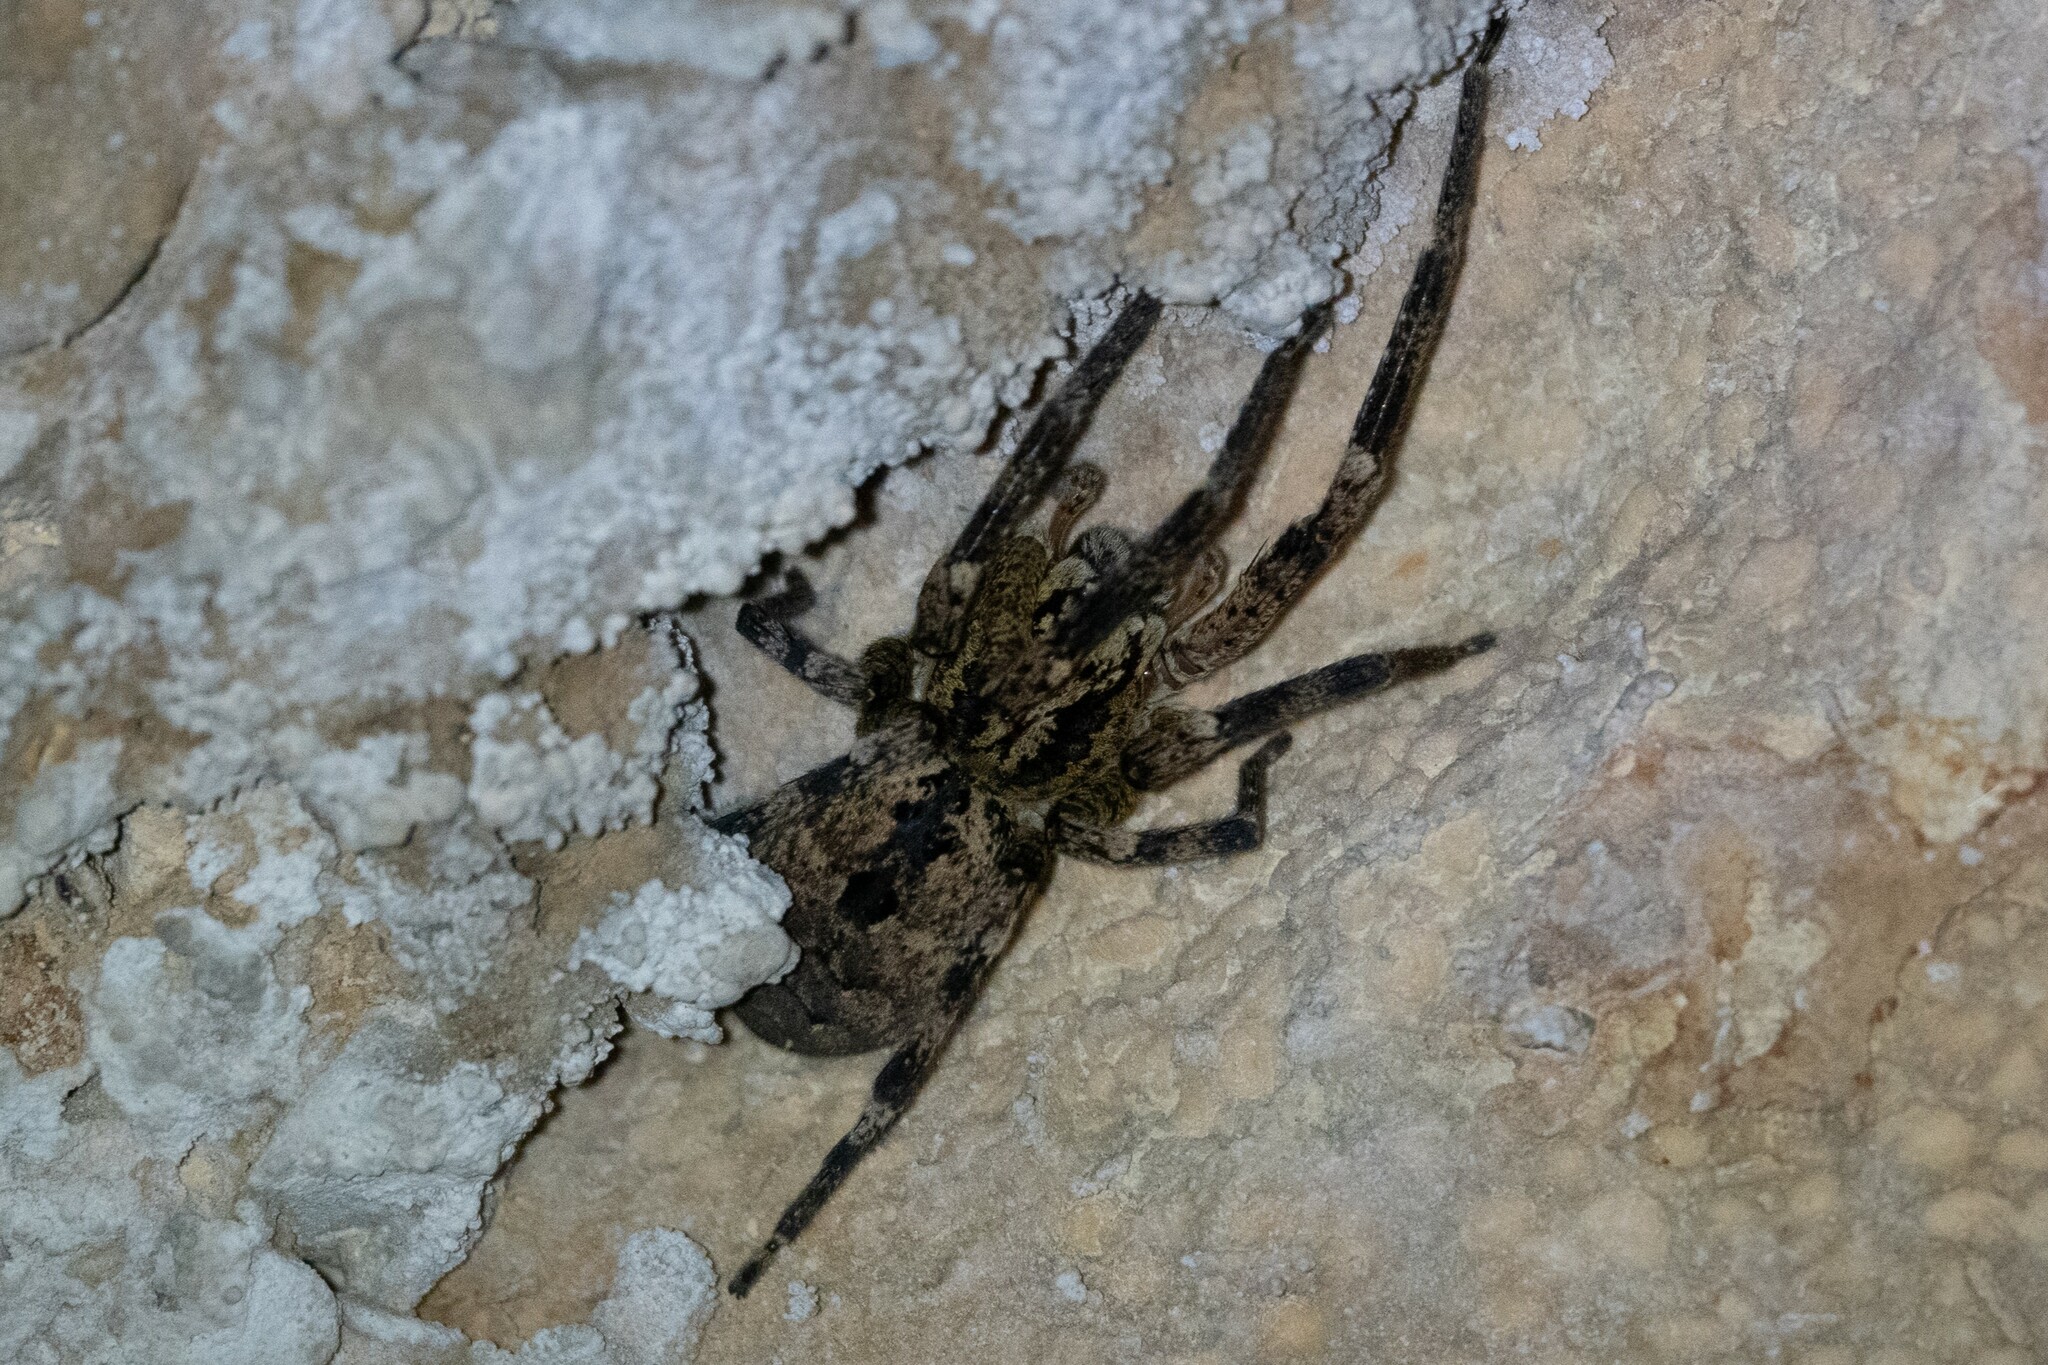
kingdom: Animalia
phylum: Arthropoda
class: Arachnida
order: Araneae
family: Zoropsidae
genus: Zoropsis
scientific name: Zoropsis spinimana
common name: Zoropsid spider
